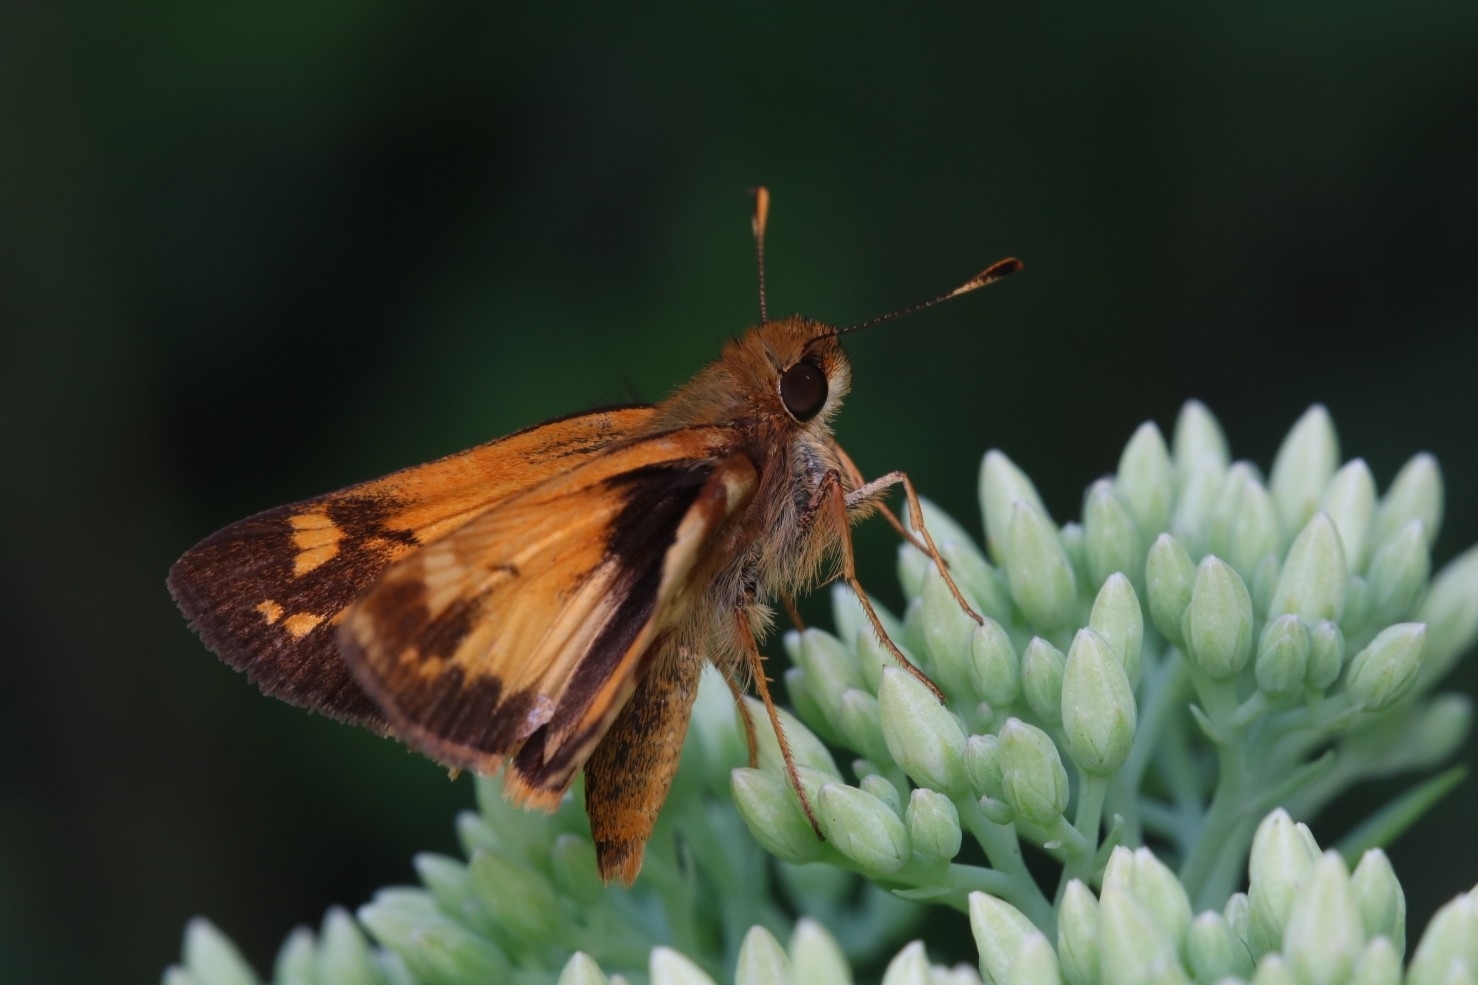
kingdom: Animalia
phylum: Arthropoda
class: Insecta
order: Lepidoptera
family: Hesperiidae
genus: Lon
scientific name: Lon zabulon
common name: Zabulon skipper
